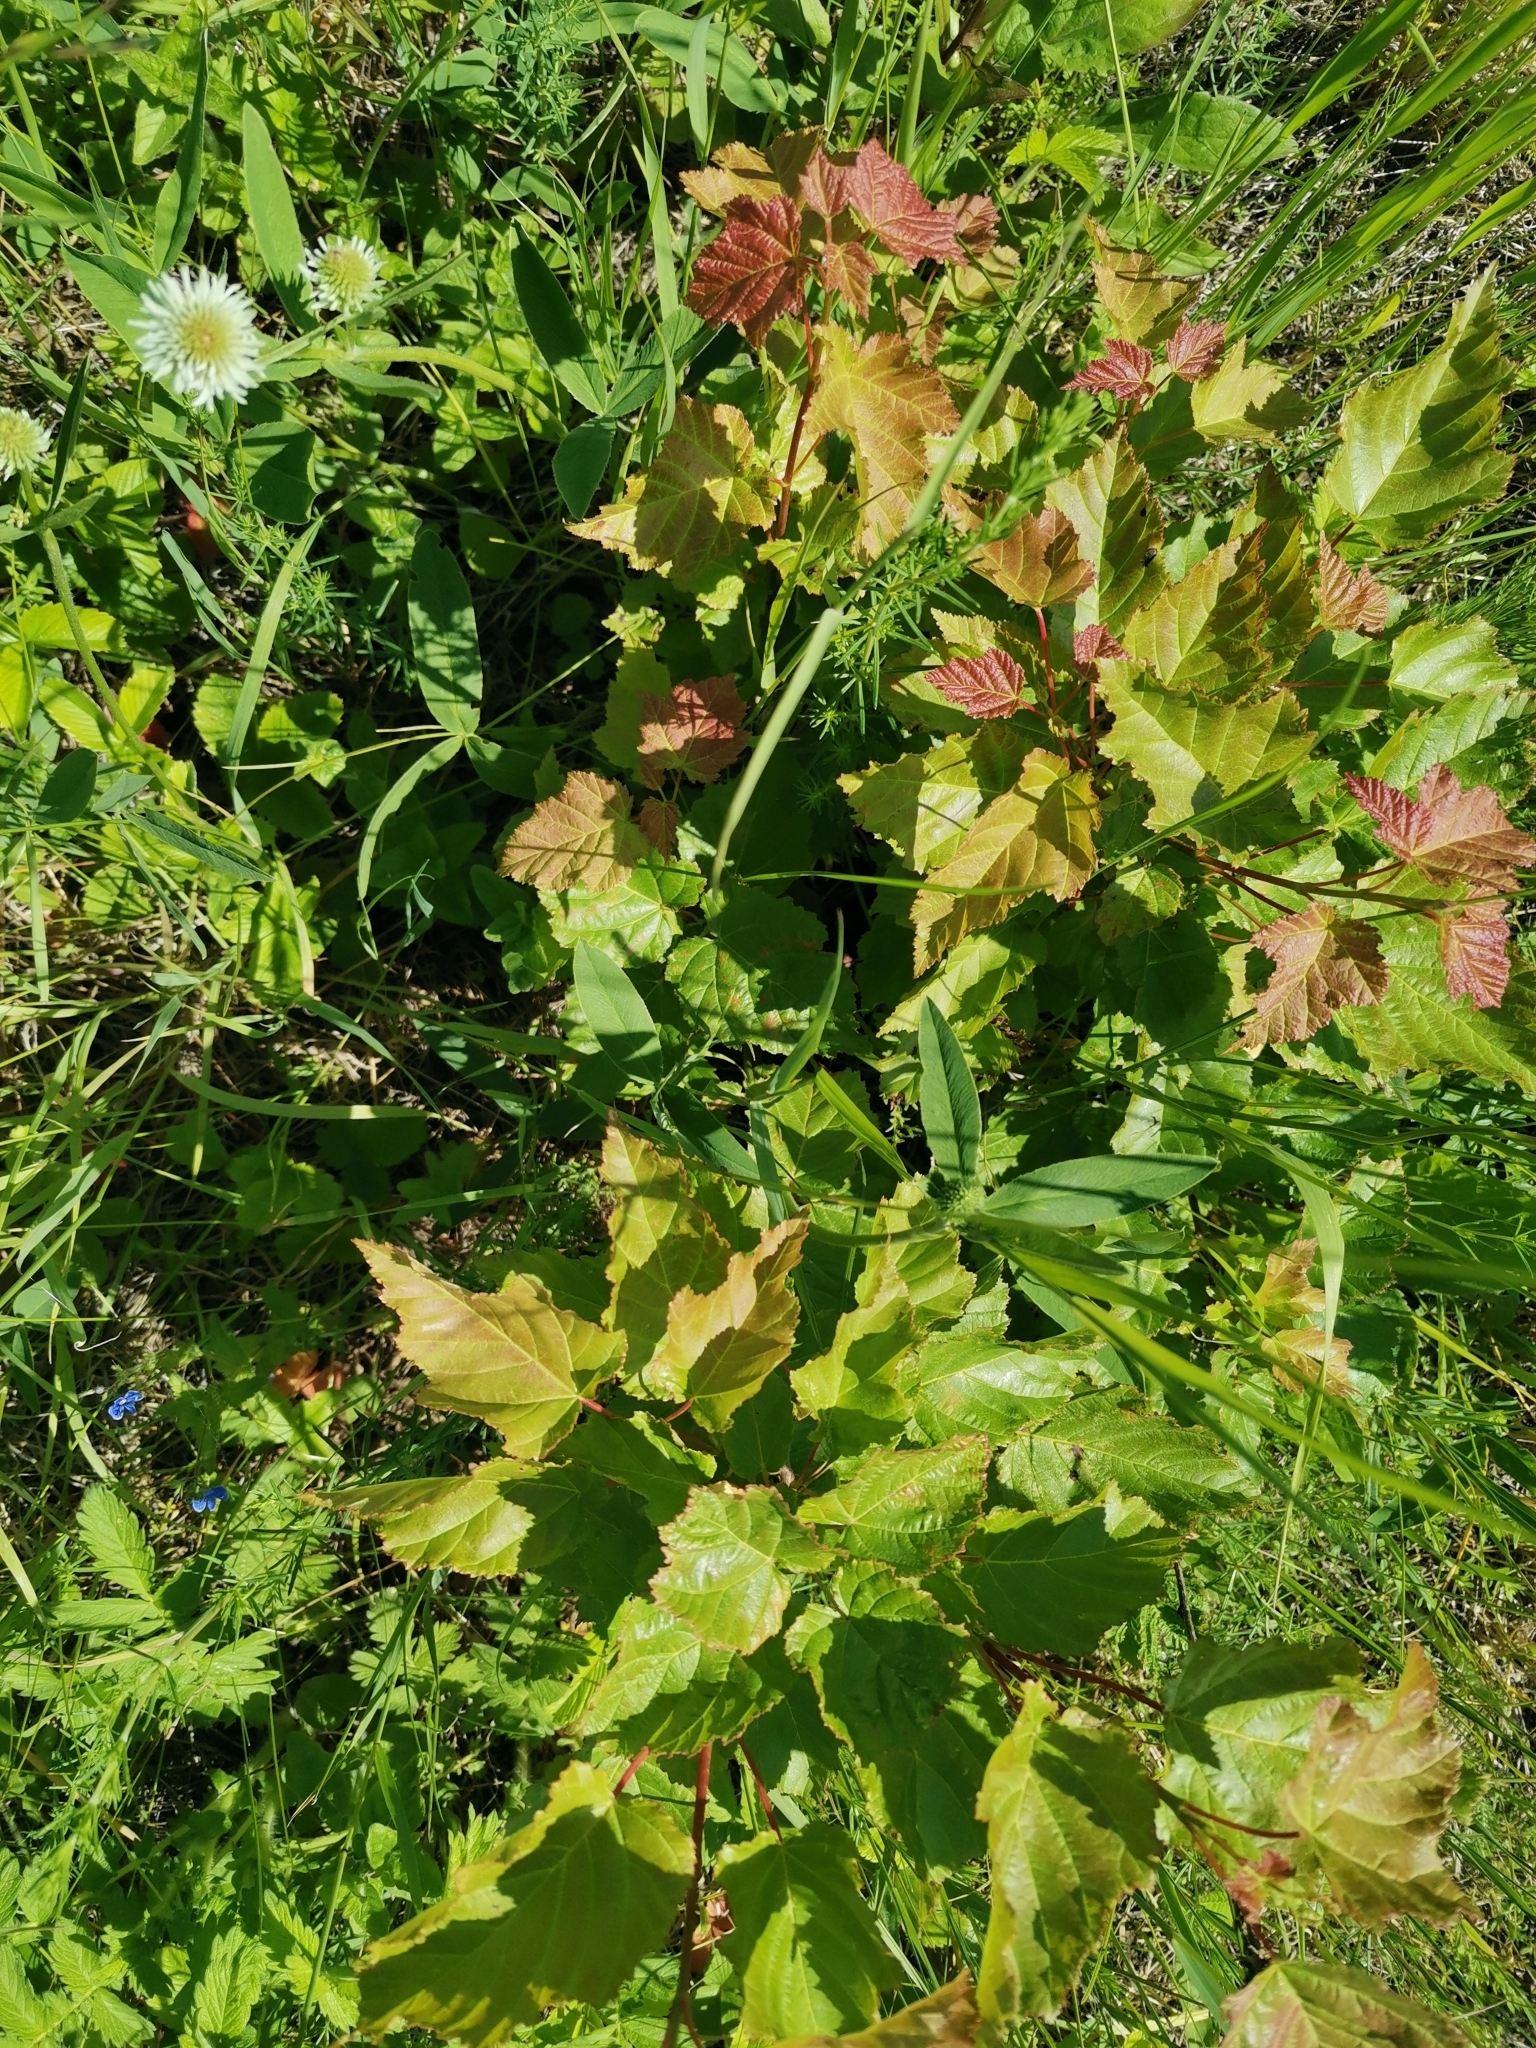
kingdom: Plantae
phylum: Tracheophyta
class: Magnoliopsida
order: Sapindales
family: Sapindaceae
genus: Acer
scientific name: Acer tataricum
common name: Tartar maple
